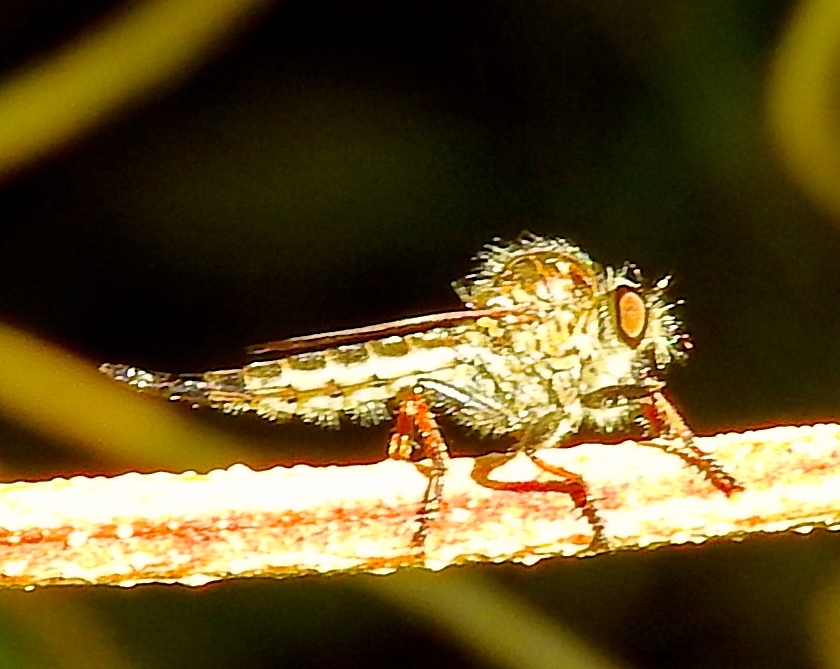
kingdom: Animalia
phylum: Arthropoda
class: Insecta
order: Diptera
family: Asilidae
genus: Efferia
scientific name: Efferia
